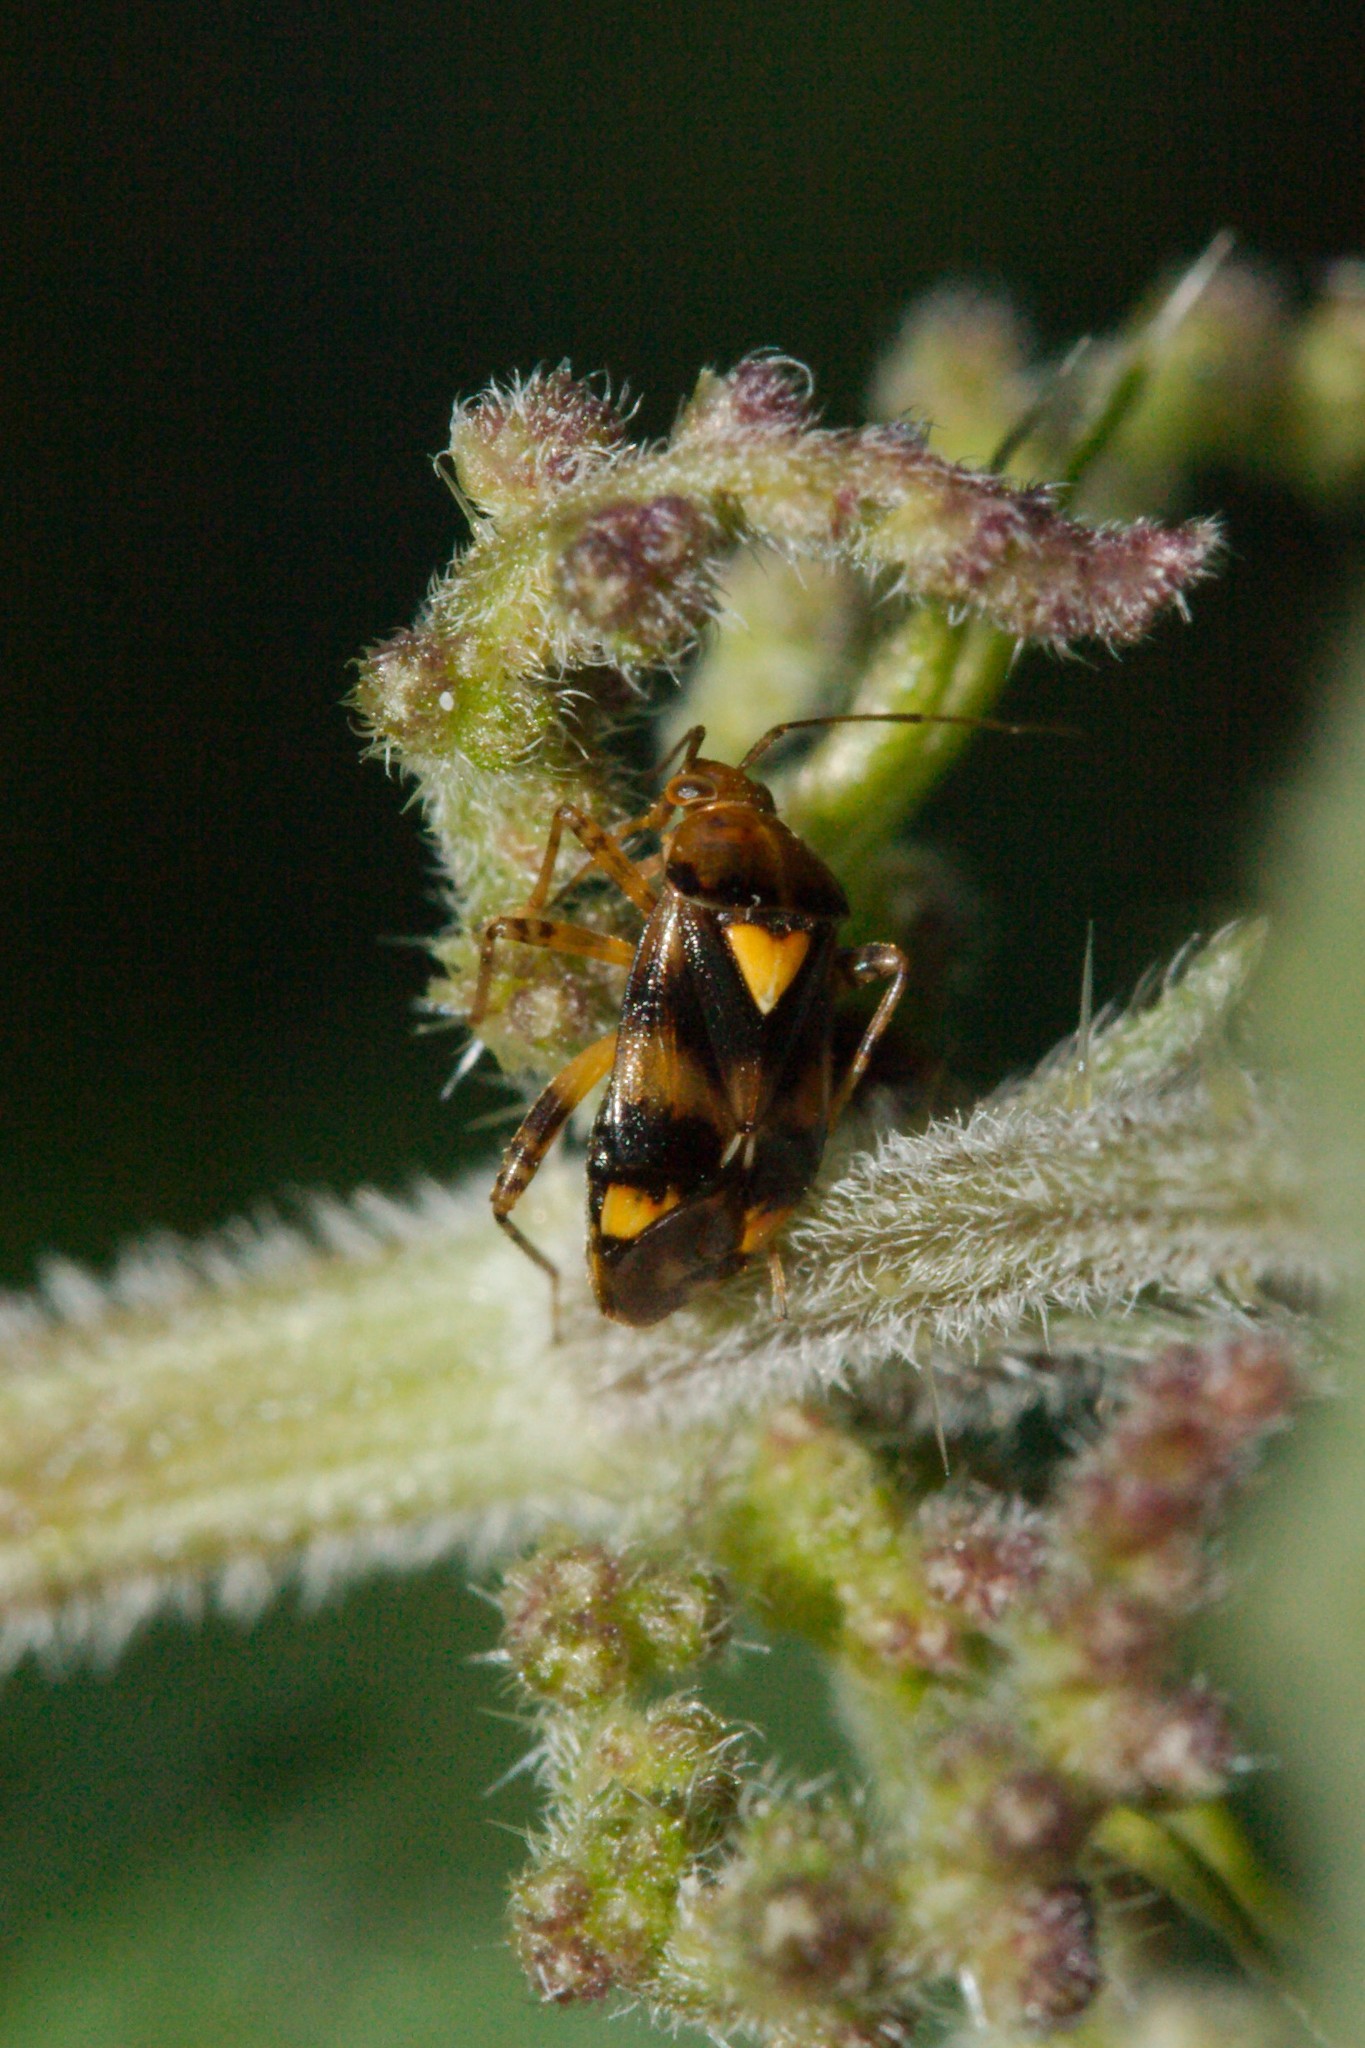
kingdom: Animalia
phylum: Arthropoda
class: Insecta
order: Hemiptera
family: Miridae
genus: Liocoris
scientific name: Liocoris tripustulatus
